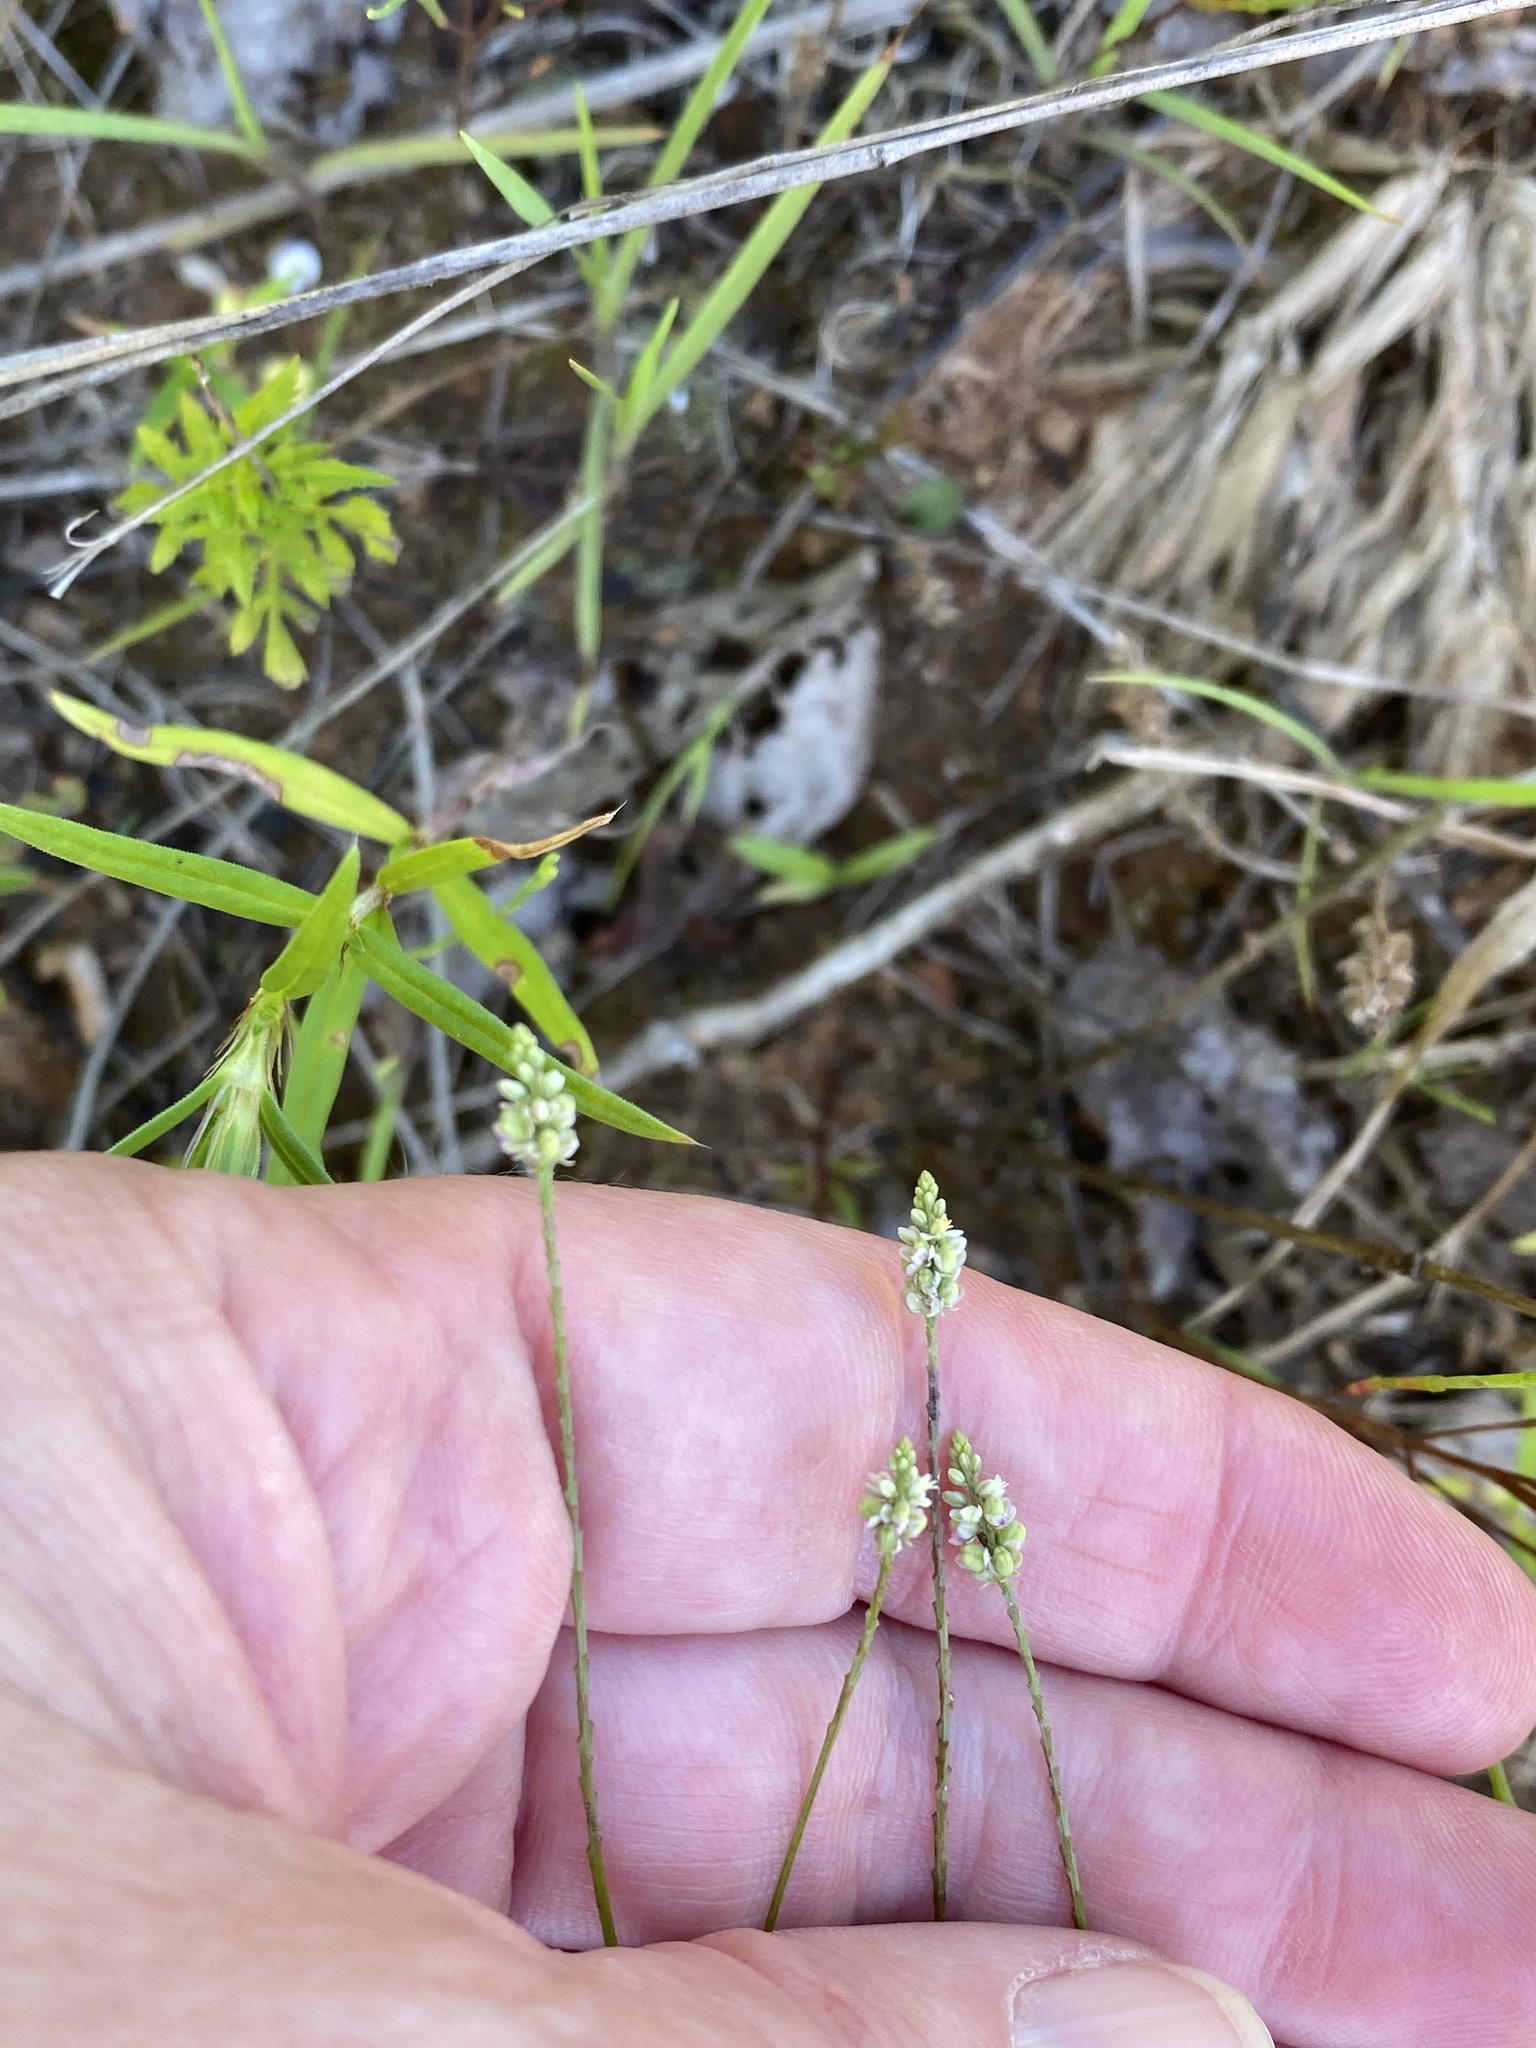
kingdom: Plantae
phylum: Tracheophyta
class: Magnoliopsida
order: Fabales
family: Polygalaceae
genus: Polygala
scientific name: Polygala verticillata
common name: Whorl milkwort
